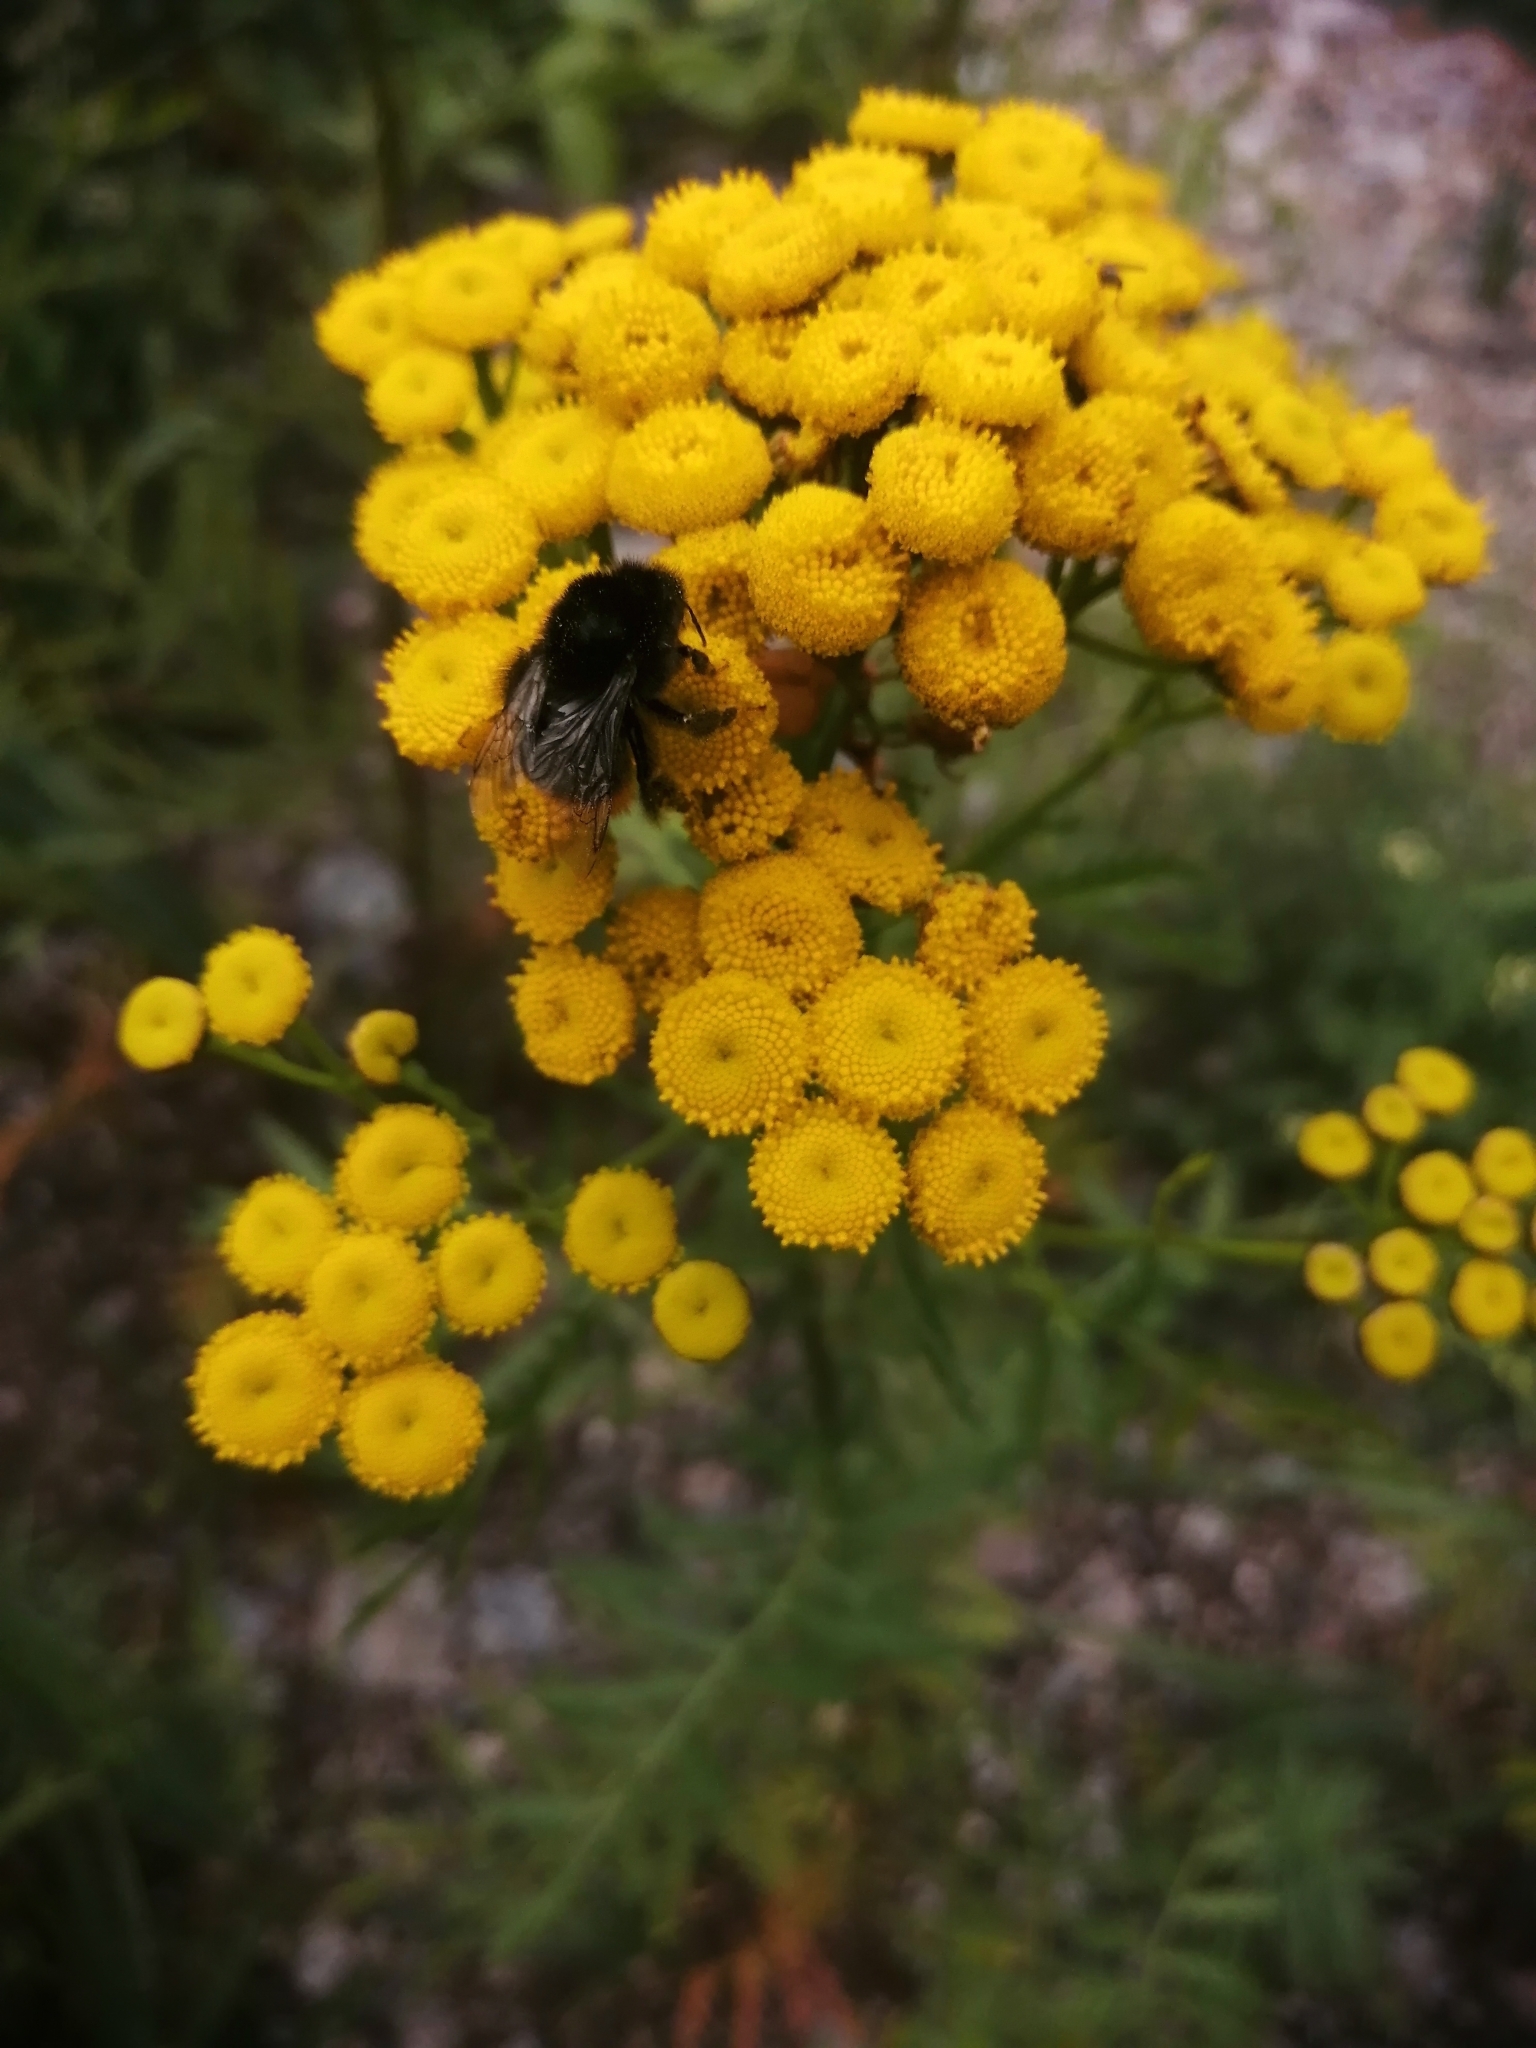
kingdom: Animalia
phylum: Arthropoda
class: Insecta
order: Hymenoptera
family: Apidae
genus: Bombus
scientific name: Bombus lapidarius
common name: Large red-tailed humble-bee
